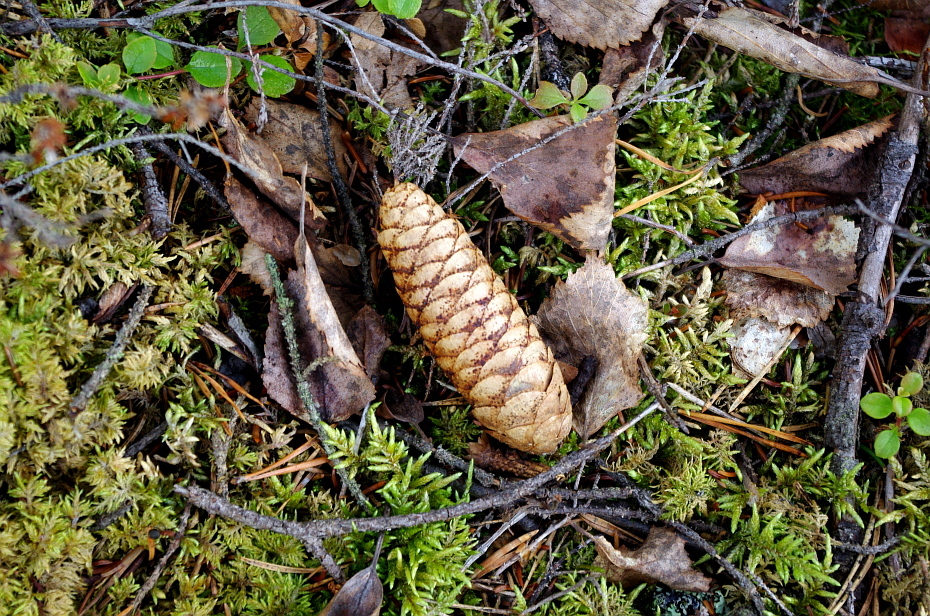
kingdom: Plantae
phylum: Tracheophyta
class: Pinopsida
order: Pinales
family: Pinaceae
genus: Picea
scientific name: Picea obovata
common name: Siberian spruce
